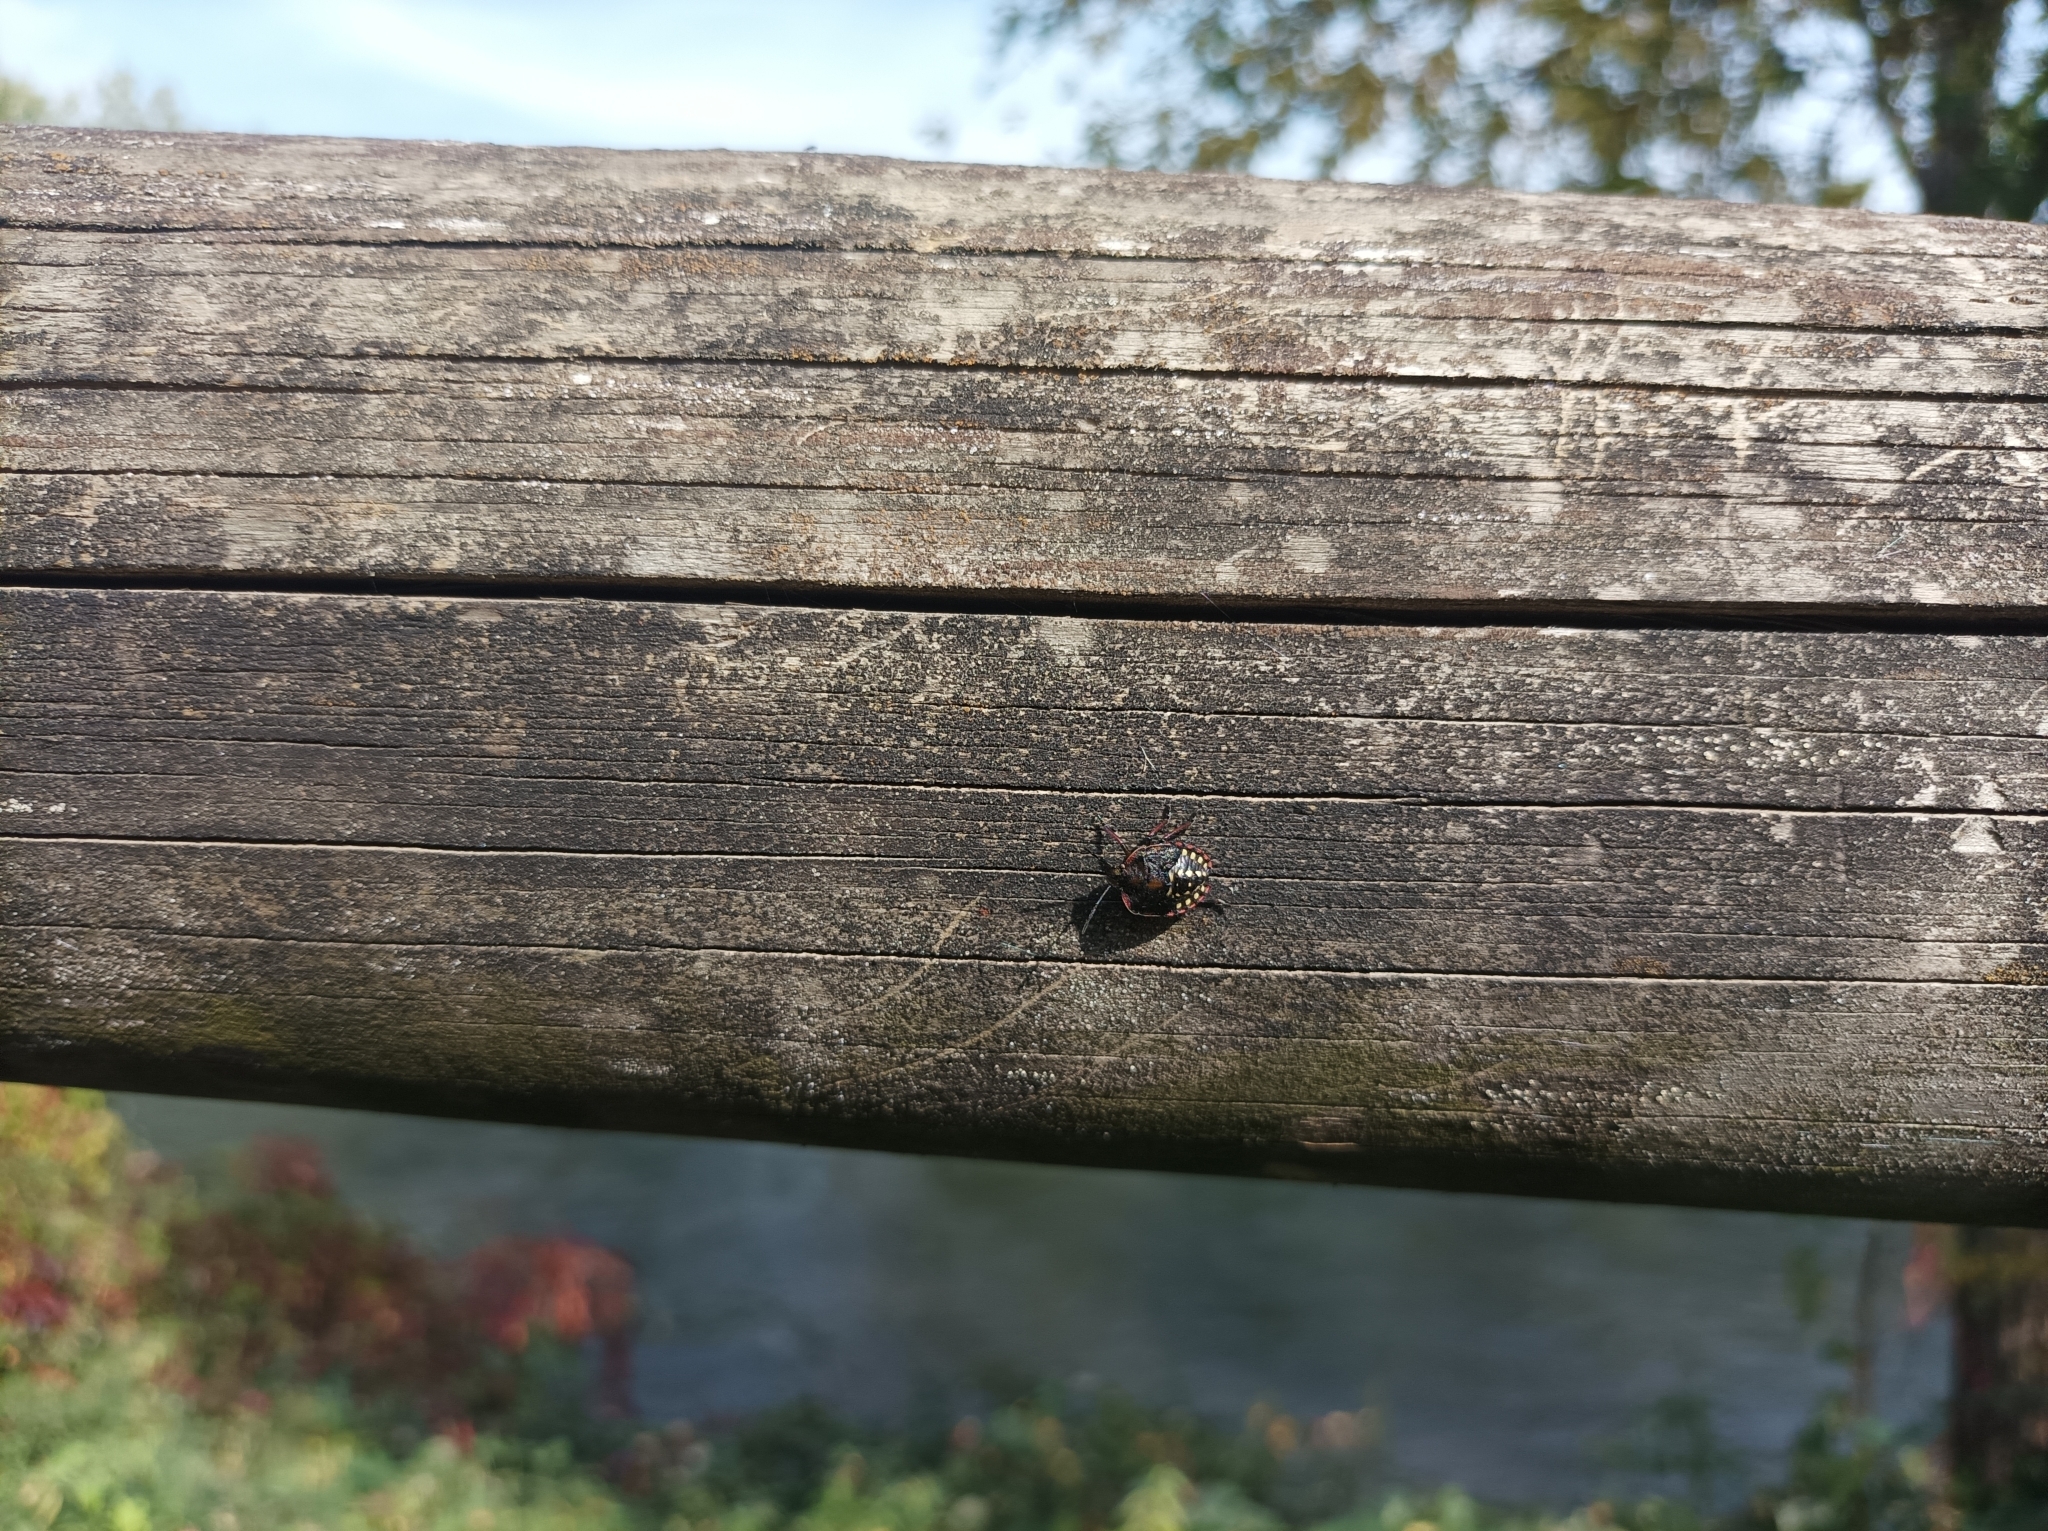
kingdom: Animalia
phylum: Arthropoda
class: Insecta
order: Hemiptera
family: Pentatomidae
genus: Nezara
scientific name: Nezara viridula
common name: Southern green stink bug
